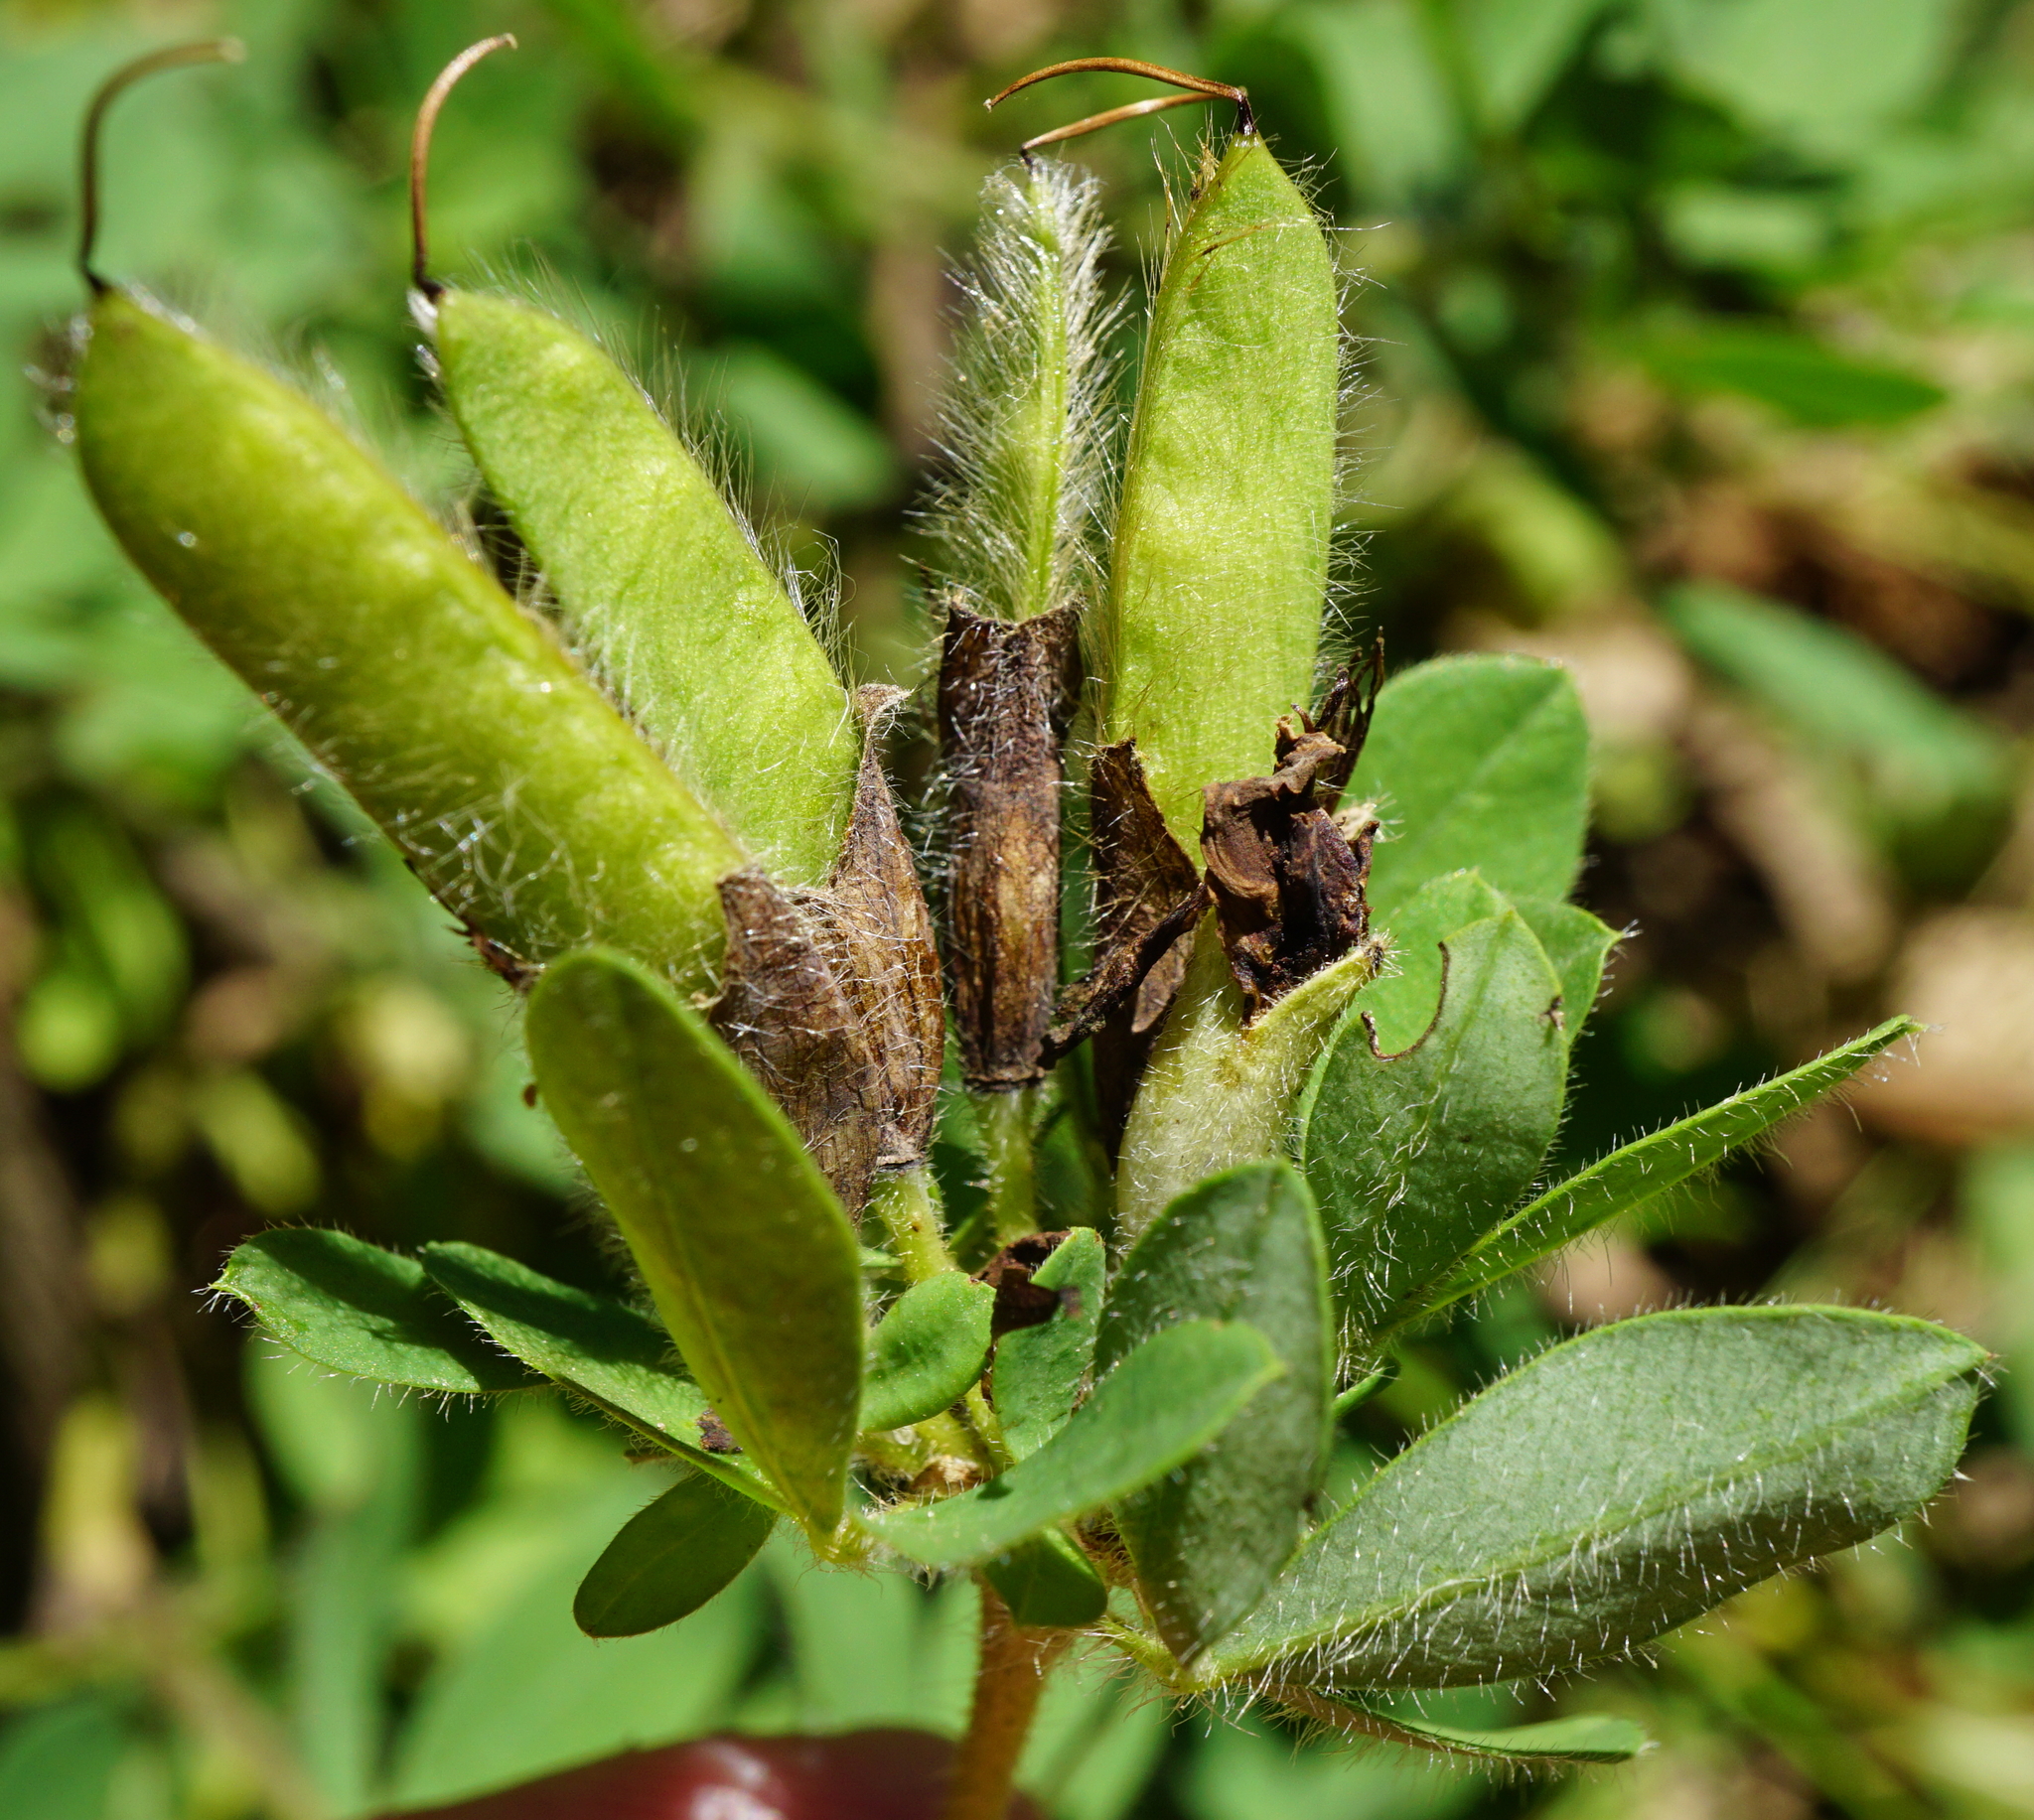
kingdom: Plantae
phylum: Tracheophyta
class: Magnoliopsida
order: Fabales
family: Fabaceae
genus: Chamaecytisus
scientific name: Chamaecytisus supinus
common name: Clustered broom
